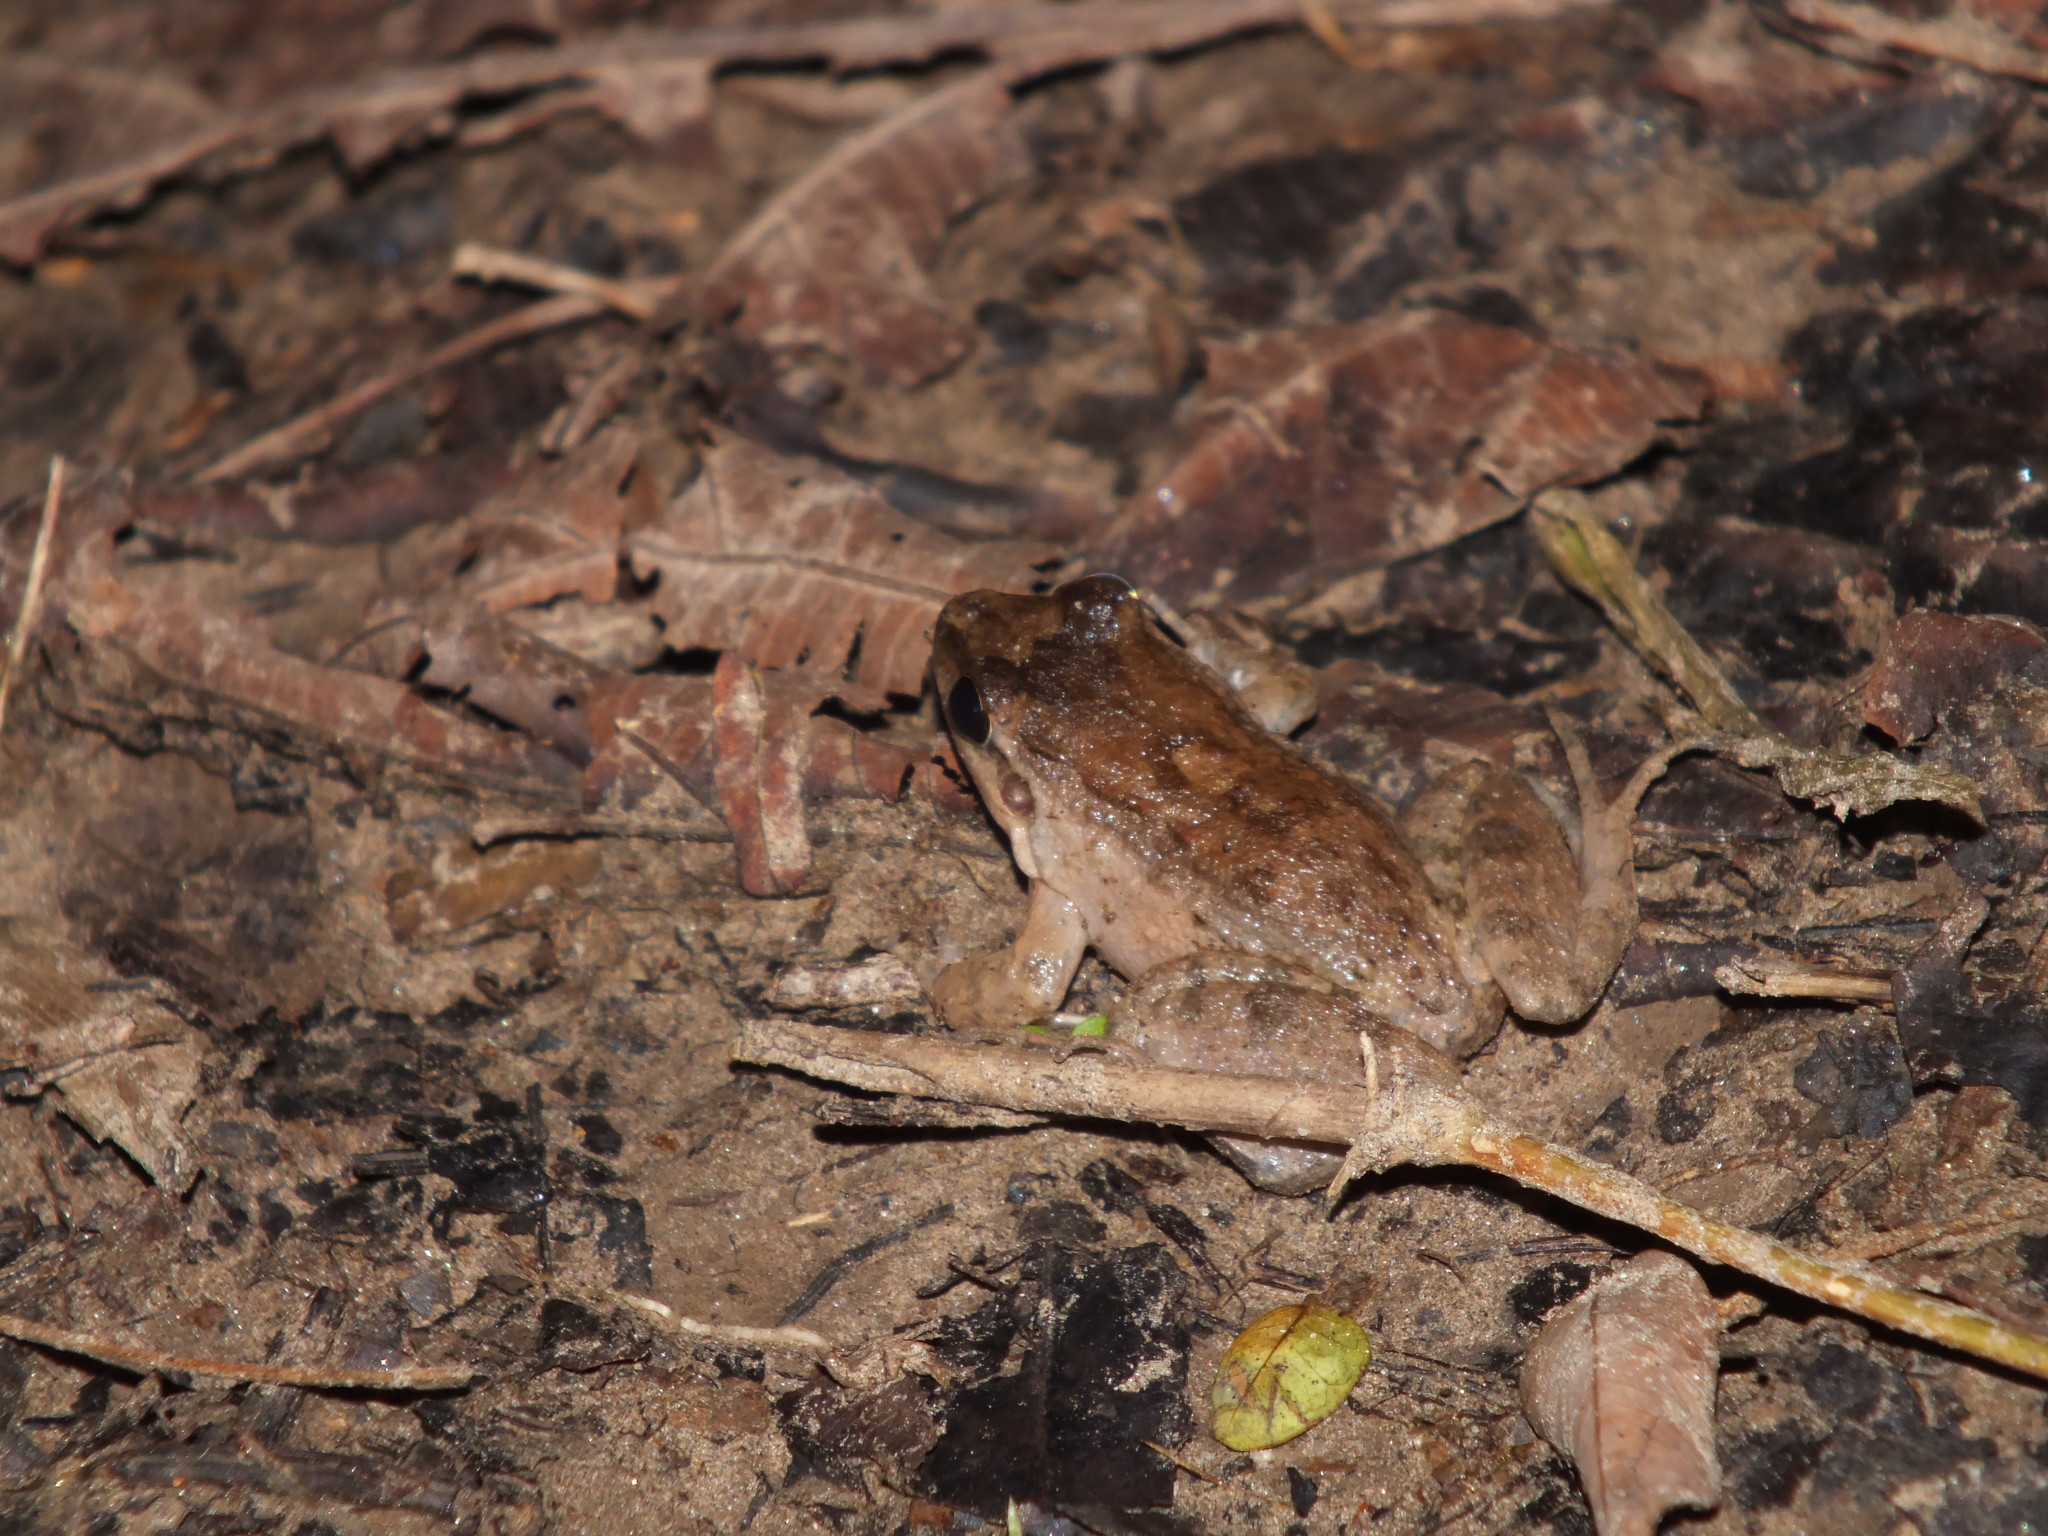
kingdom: Animalia
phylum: Chordata
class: Amphibia
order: Anura
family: Leptodactylidae
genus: Leptodactylus
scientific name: Leptodactylus petersii
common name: Peters' thin-toed frog
